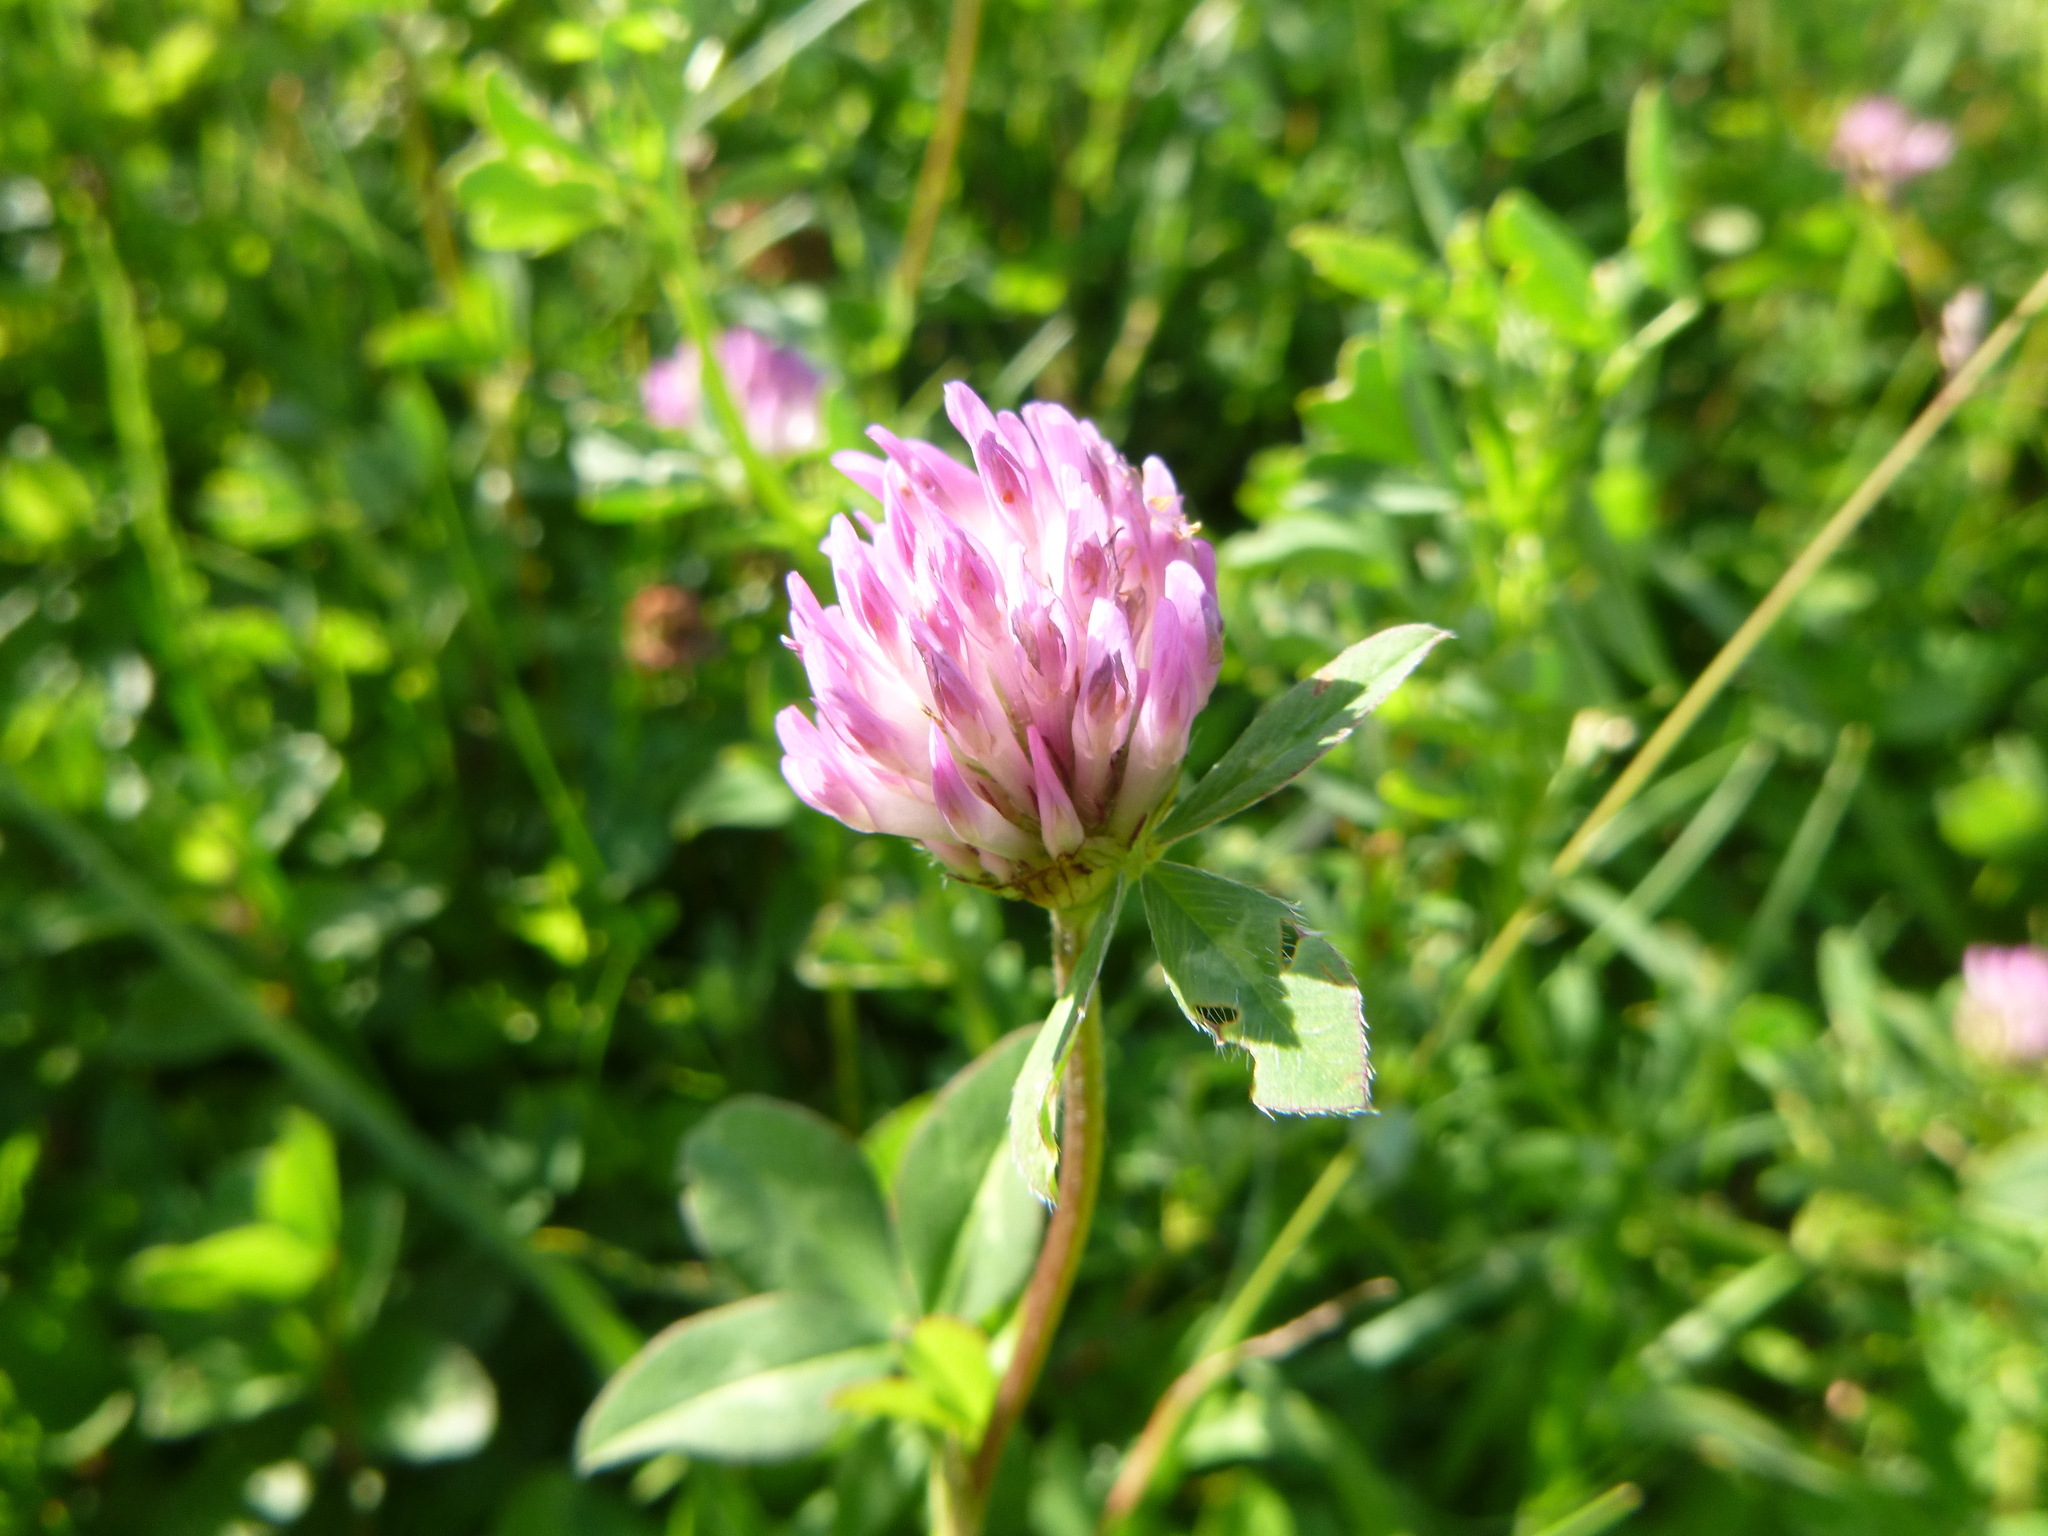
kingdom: Plantae
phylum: Tracheophyta
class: Magnoliopsida
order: Fabales
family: Fabaceae
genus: Trifolium
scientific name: Trifolium pratense
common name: Red clover
